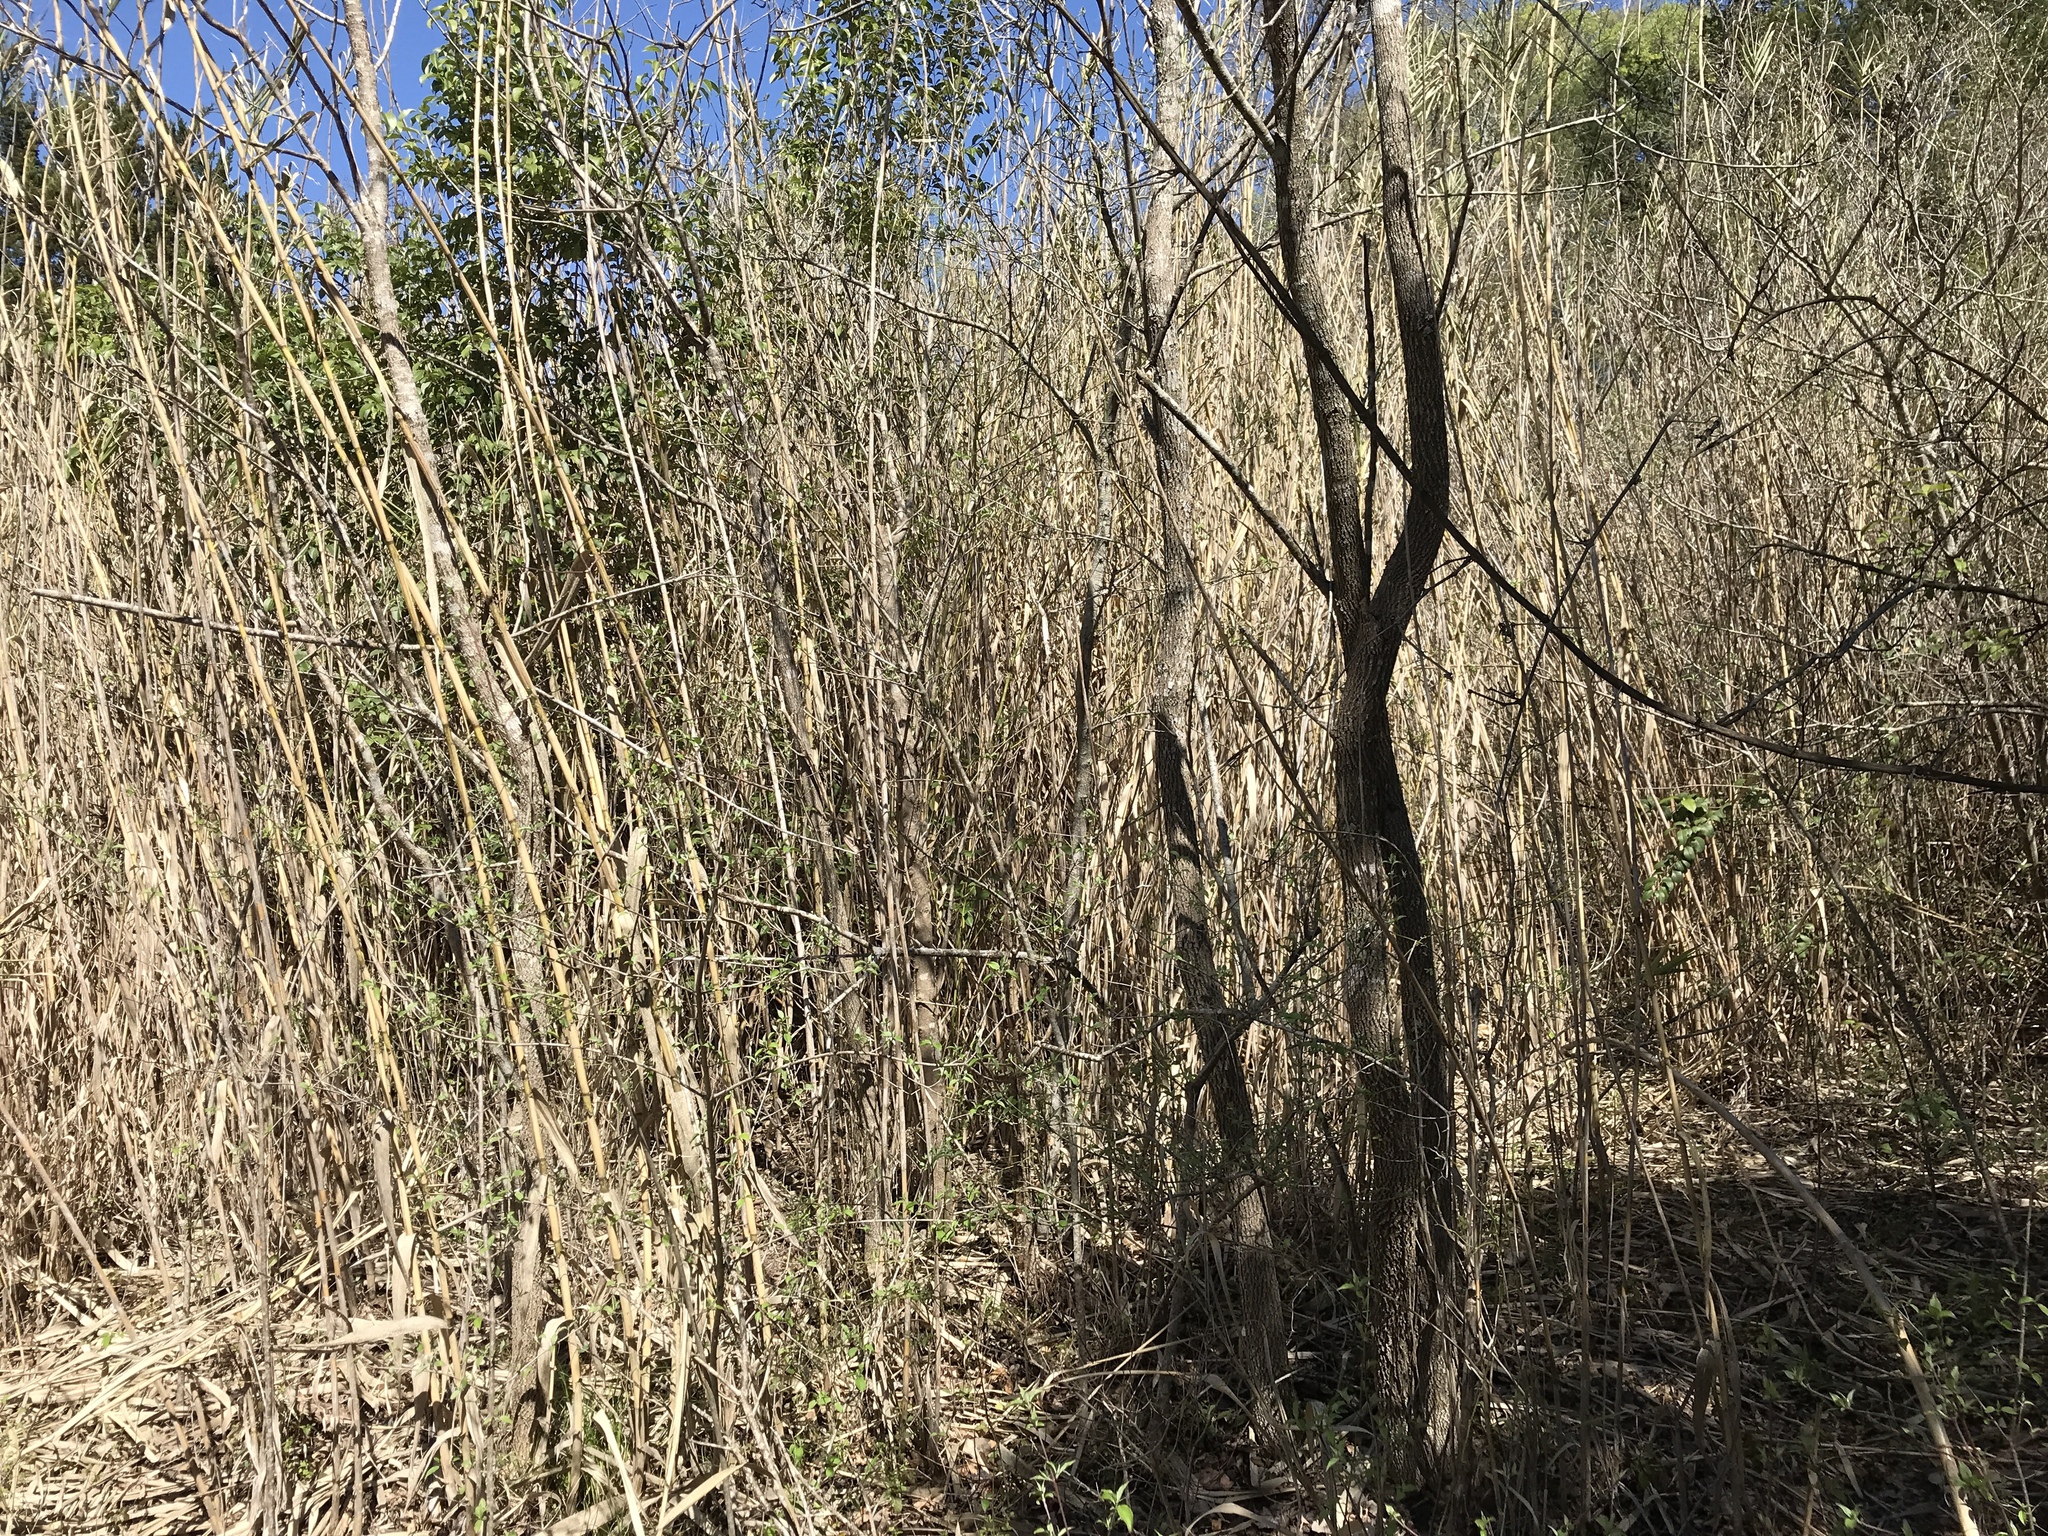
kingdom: Plantae
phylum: Tracheophyta
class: Liliopsida
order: Poales
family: Poaceae
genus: Arundo
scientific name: Arundo donax
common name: Giant reed
